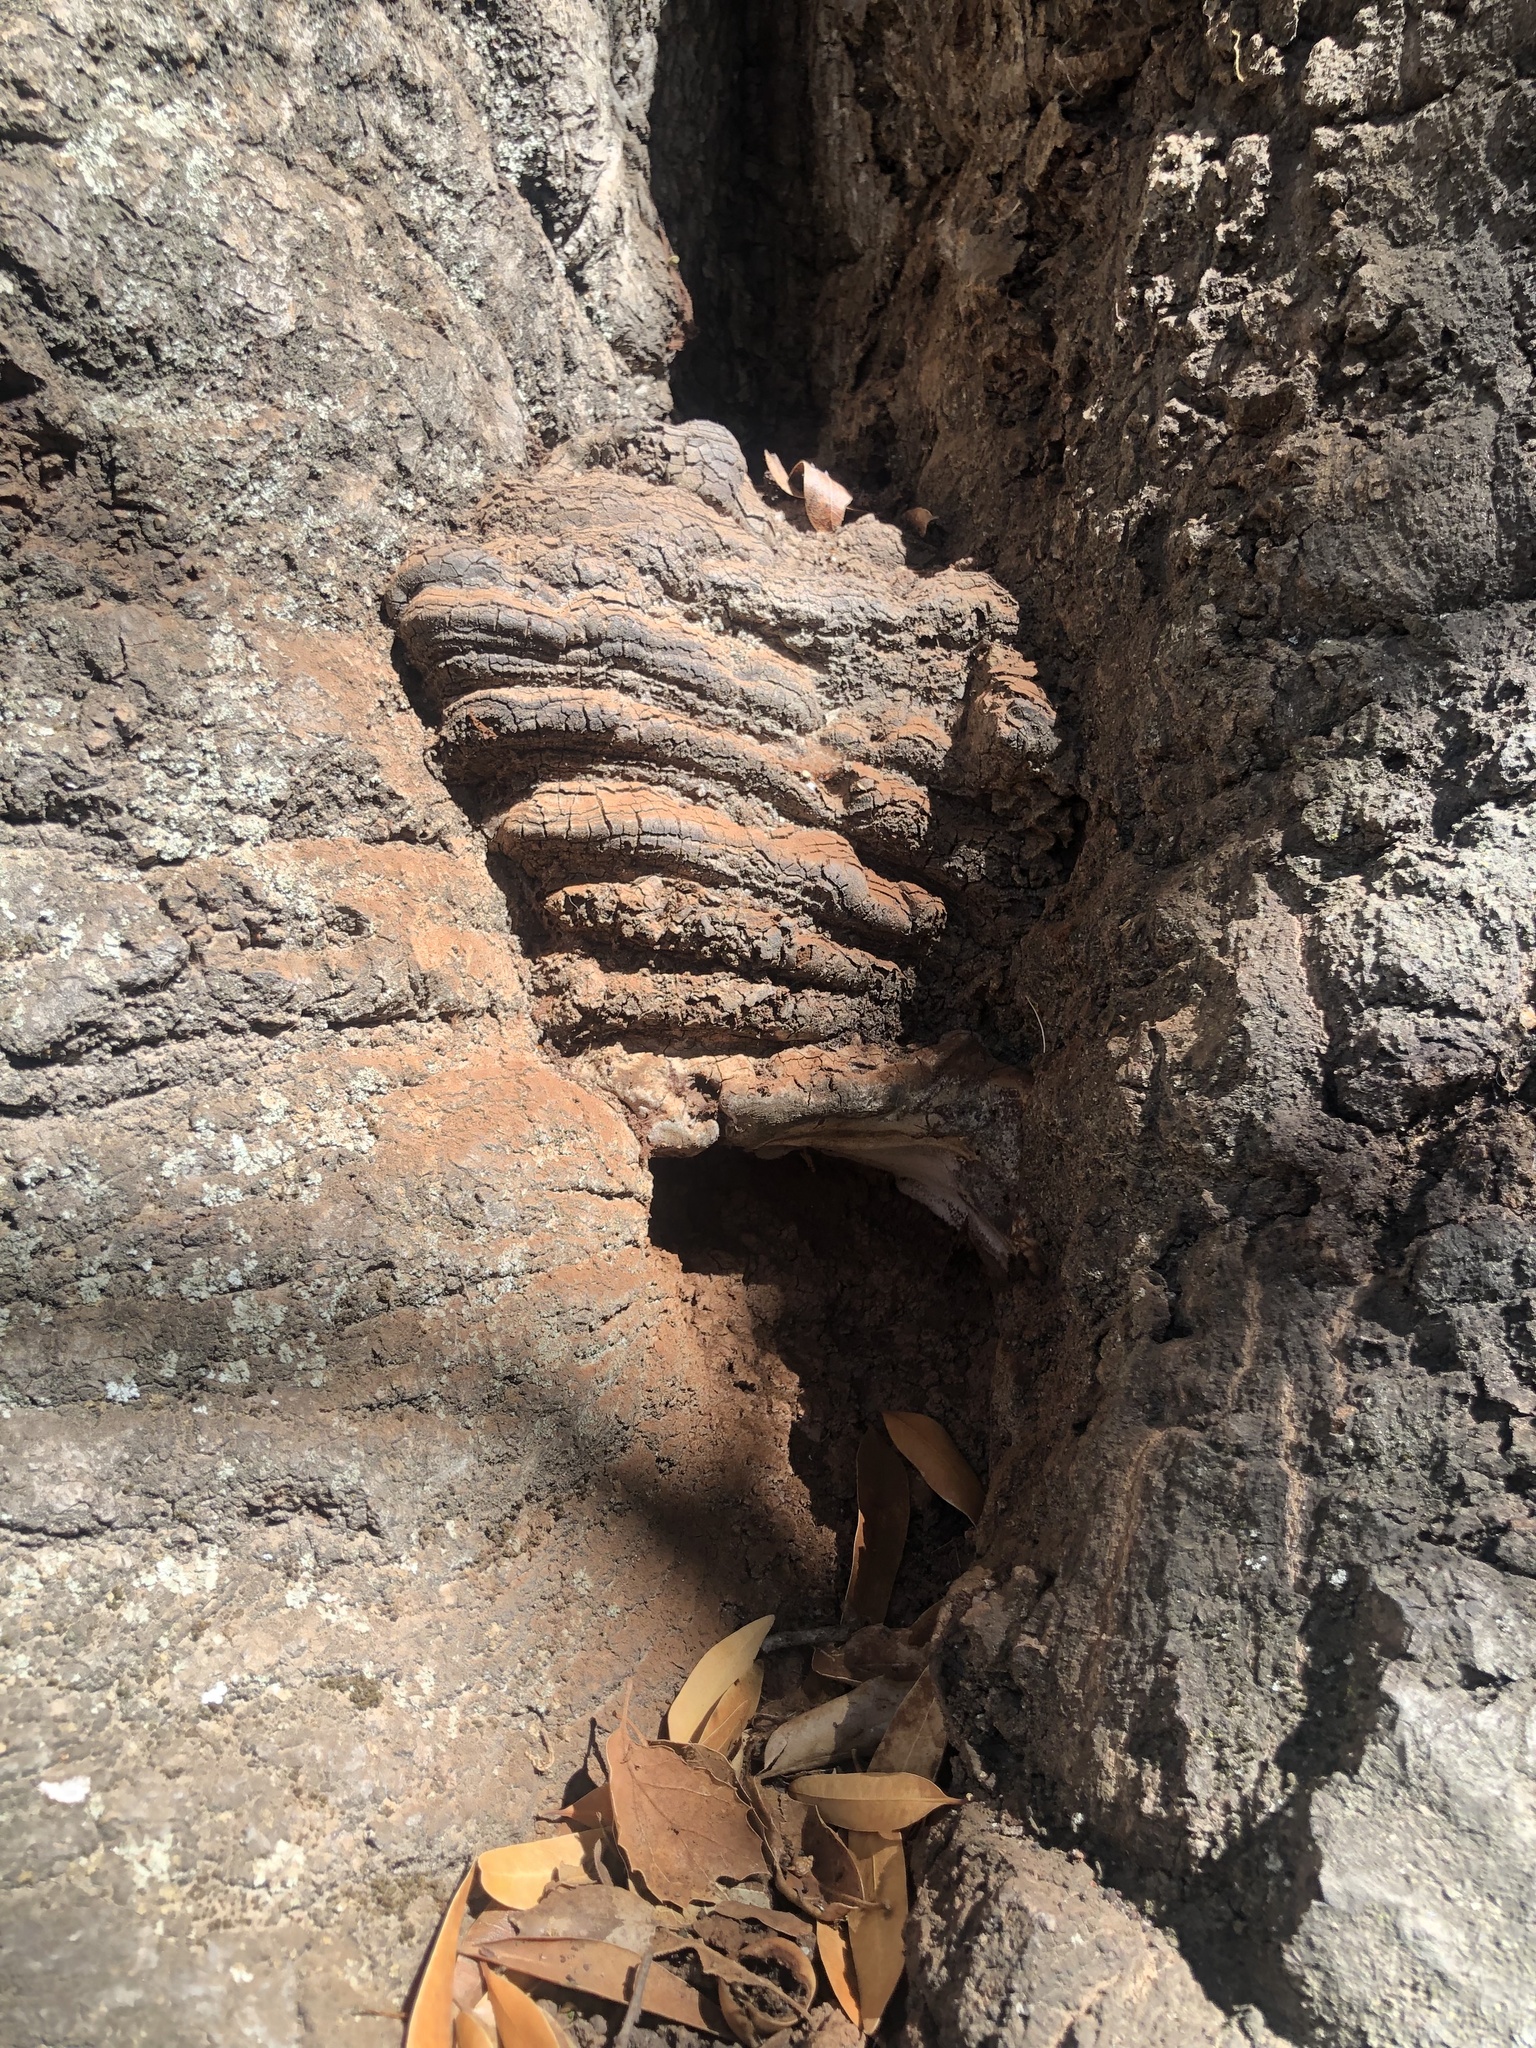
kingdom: Fungi
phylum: Basidiomycota
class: Agaricomycetes
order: Polyporales
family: Polyporaceae
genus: Ganoderma
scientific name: Ganoderma brownii
